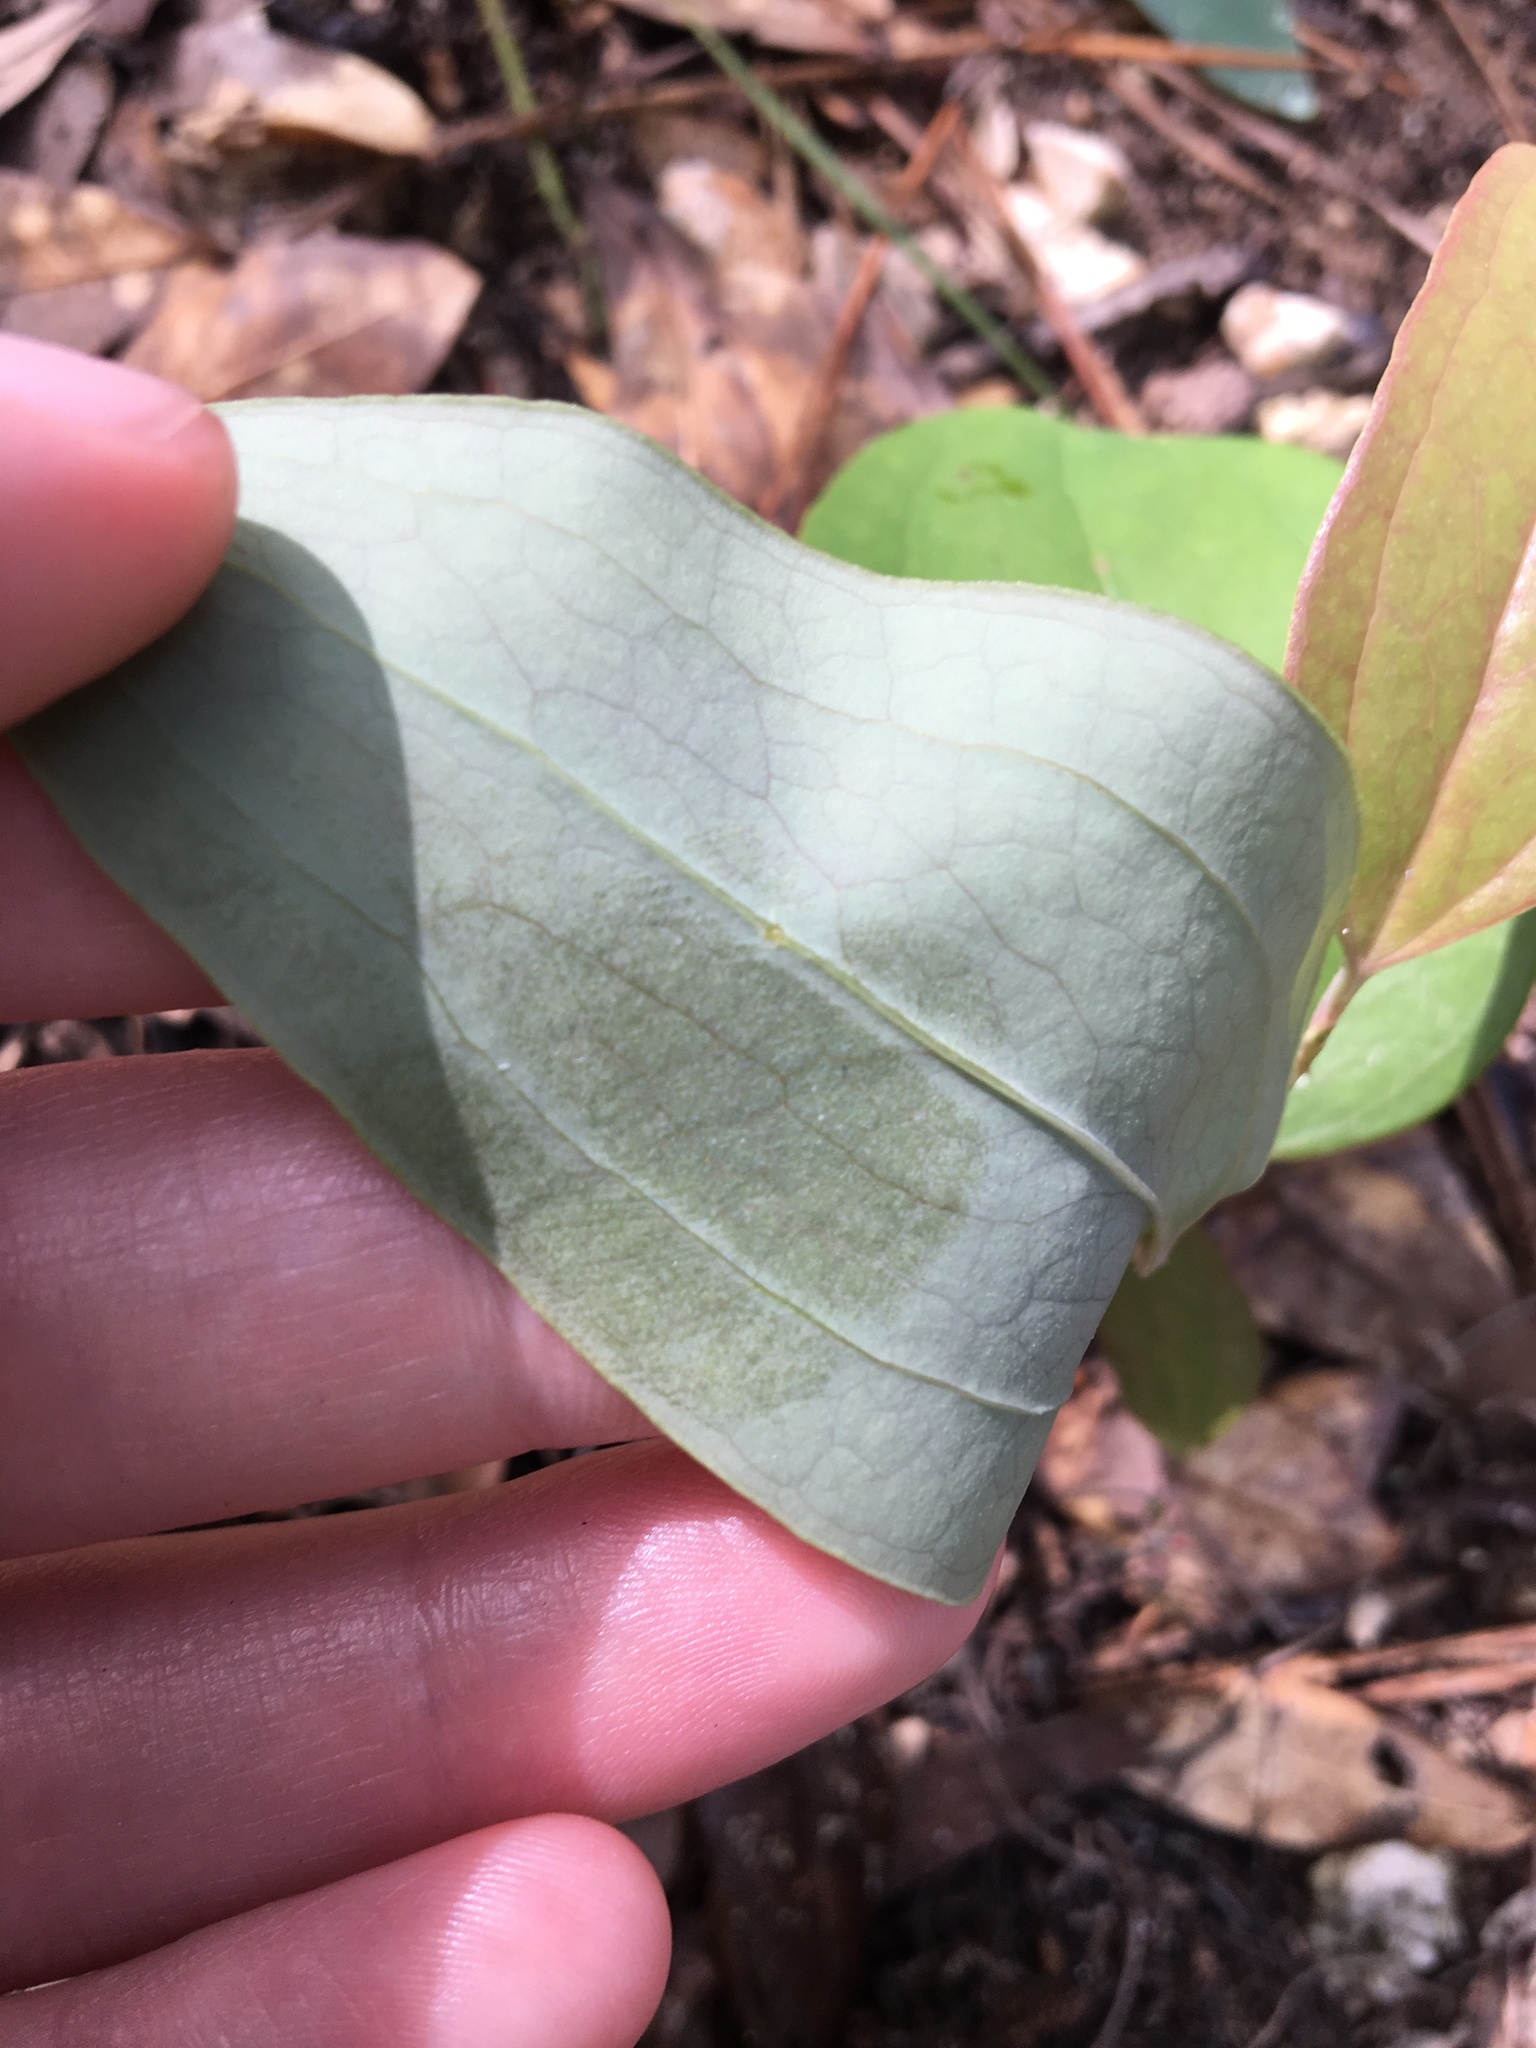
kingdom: Plantae
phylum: Tracheophyta
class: Liliopsida
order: Liliales
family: Smilacaceae
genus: Smilax
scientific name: Smilax glauca
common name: Cat greenbrier
